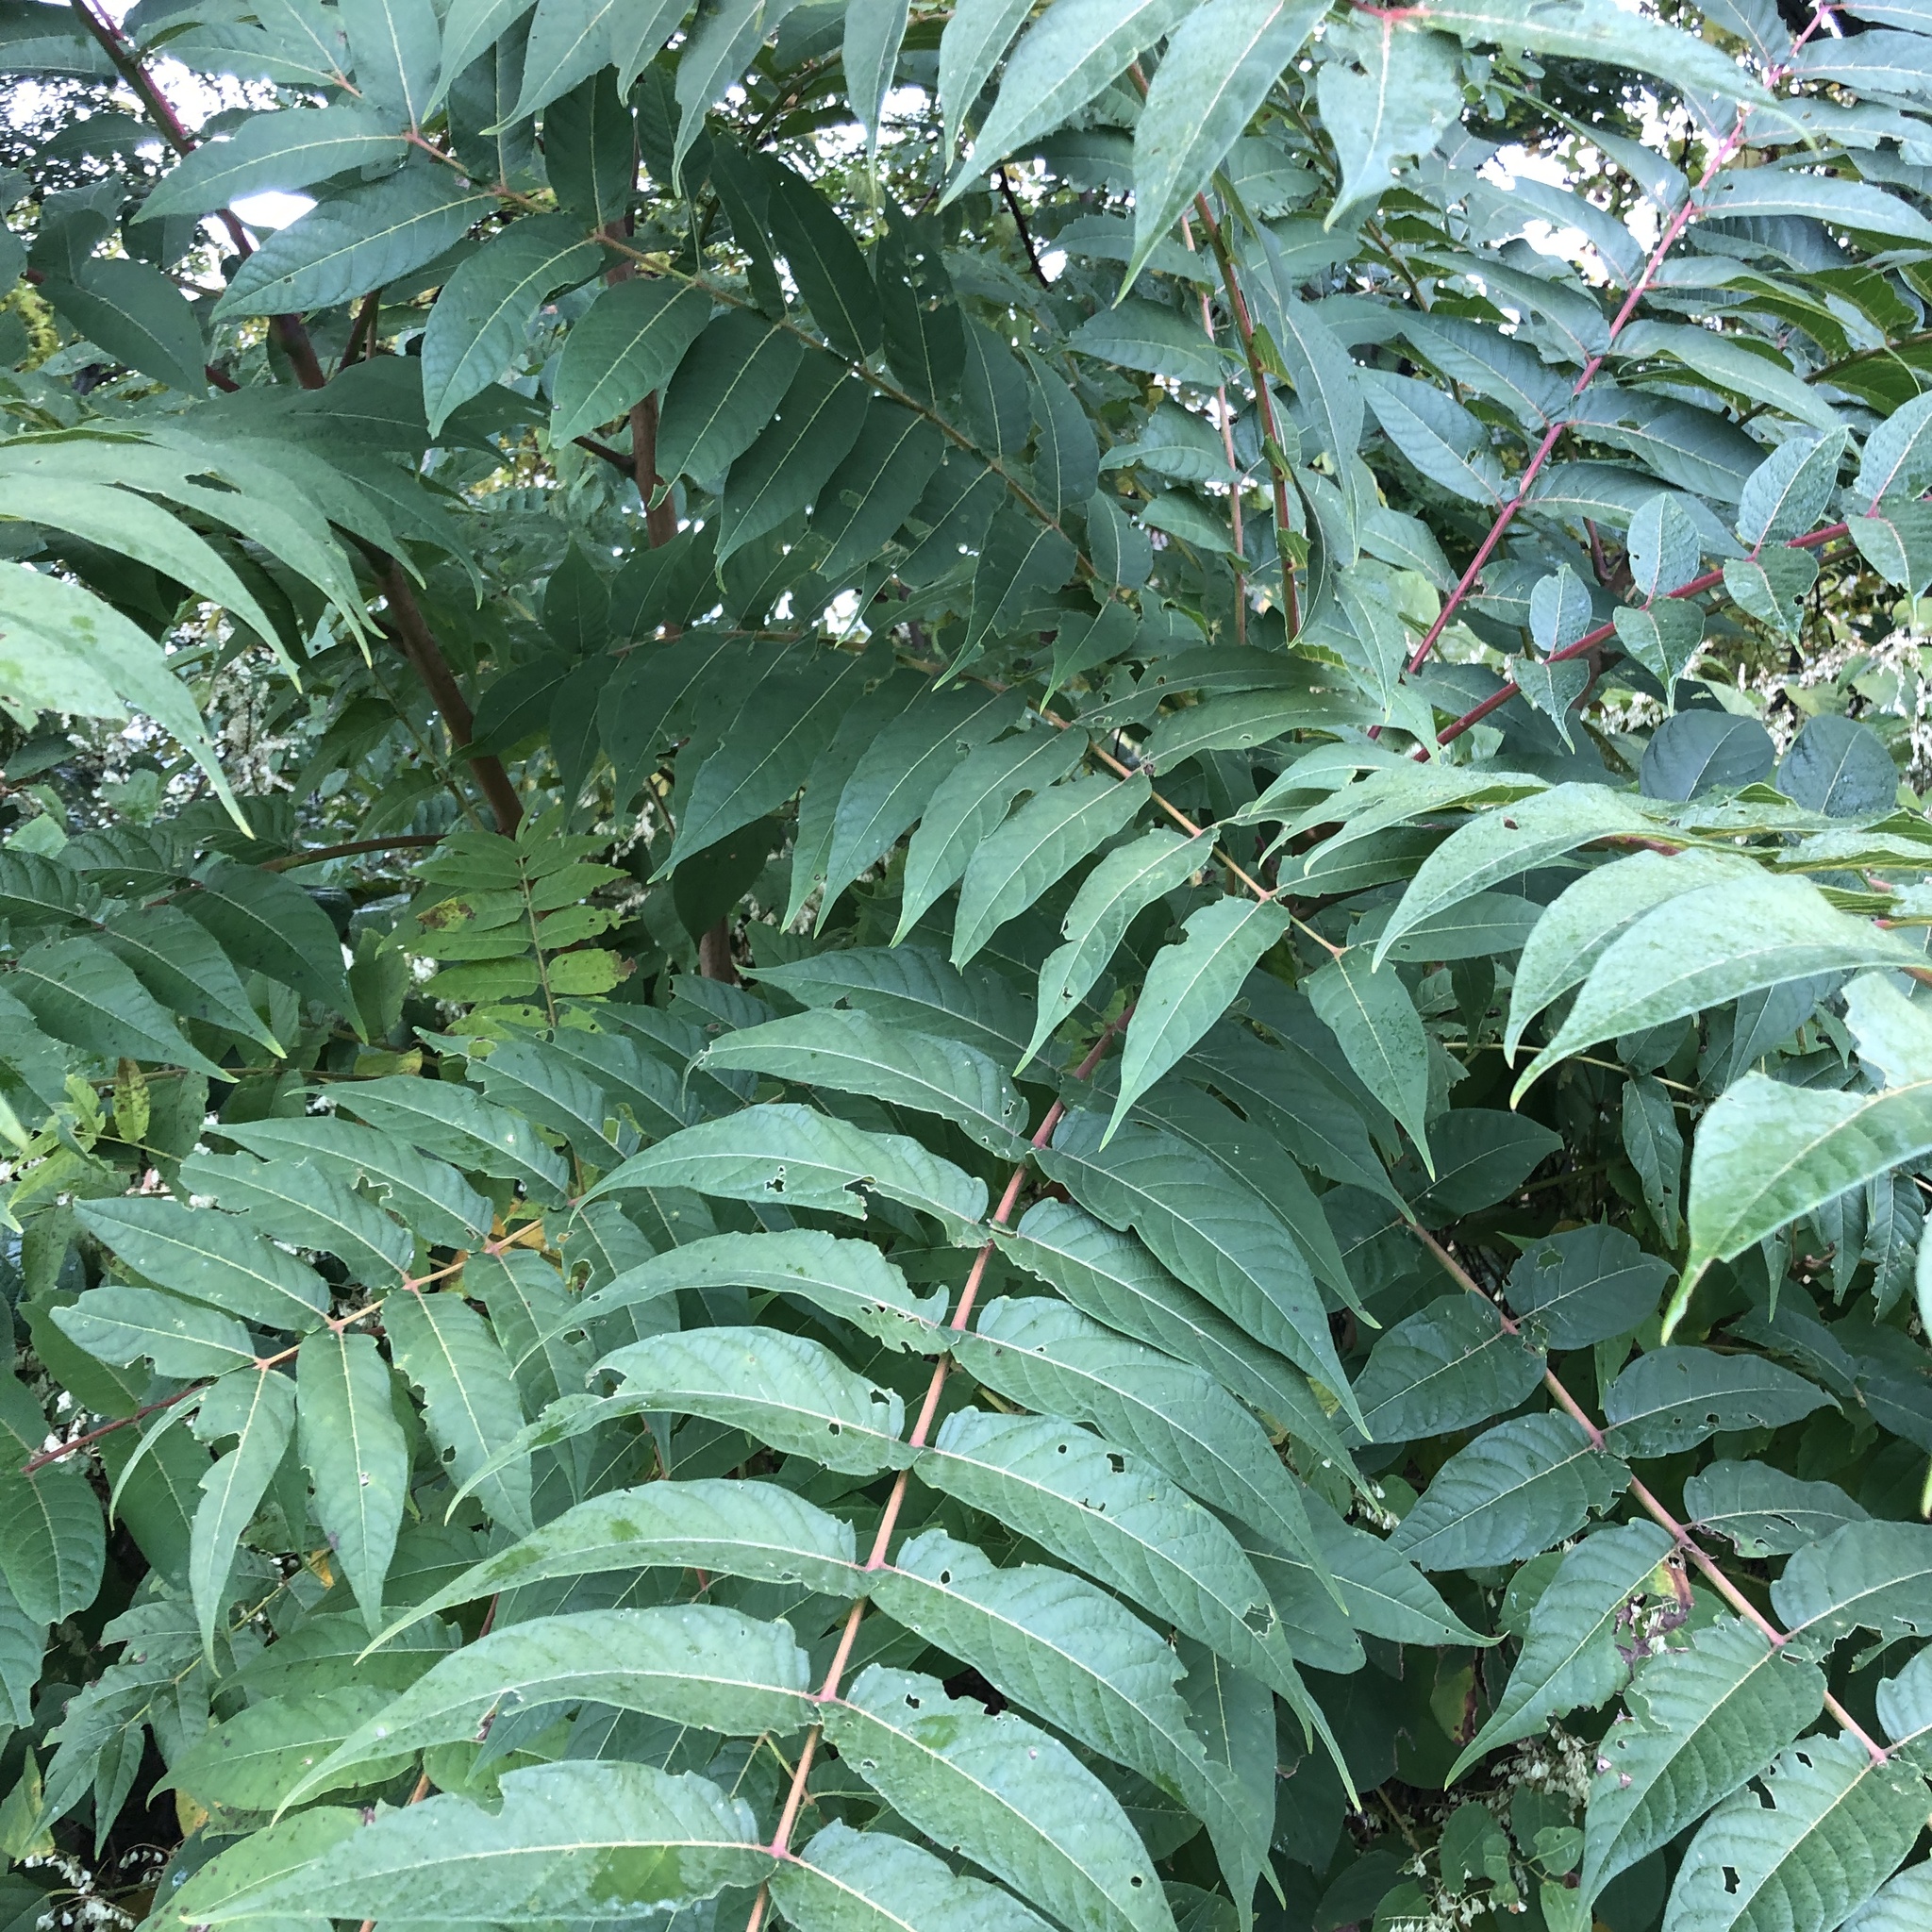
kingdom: Plantae
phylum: Tracheophyta
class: Magnoliopsida
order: Sapindales
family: Simaroubaceae
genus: Ailanthus
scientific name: Ailanthus altissima
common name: Tree-of-heaven
